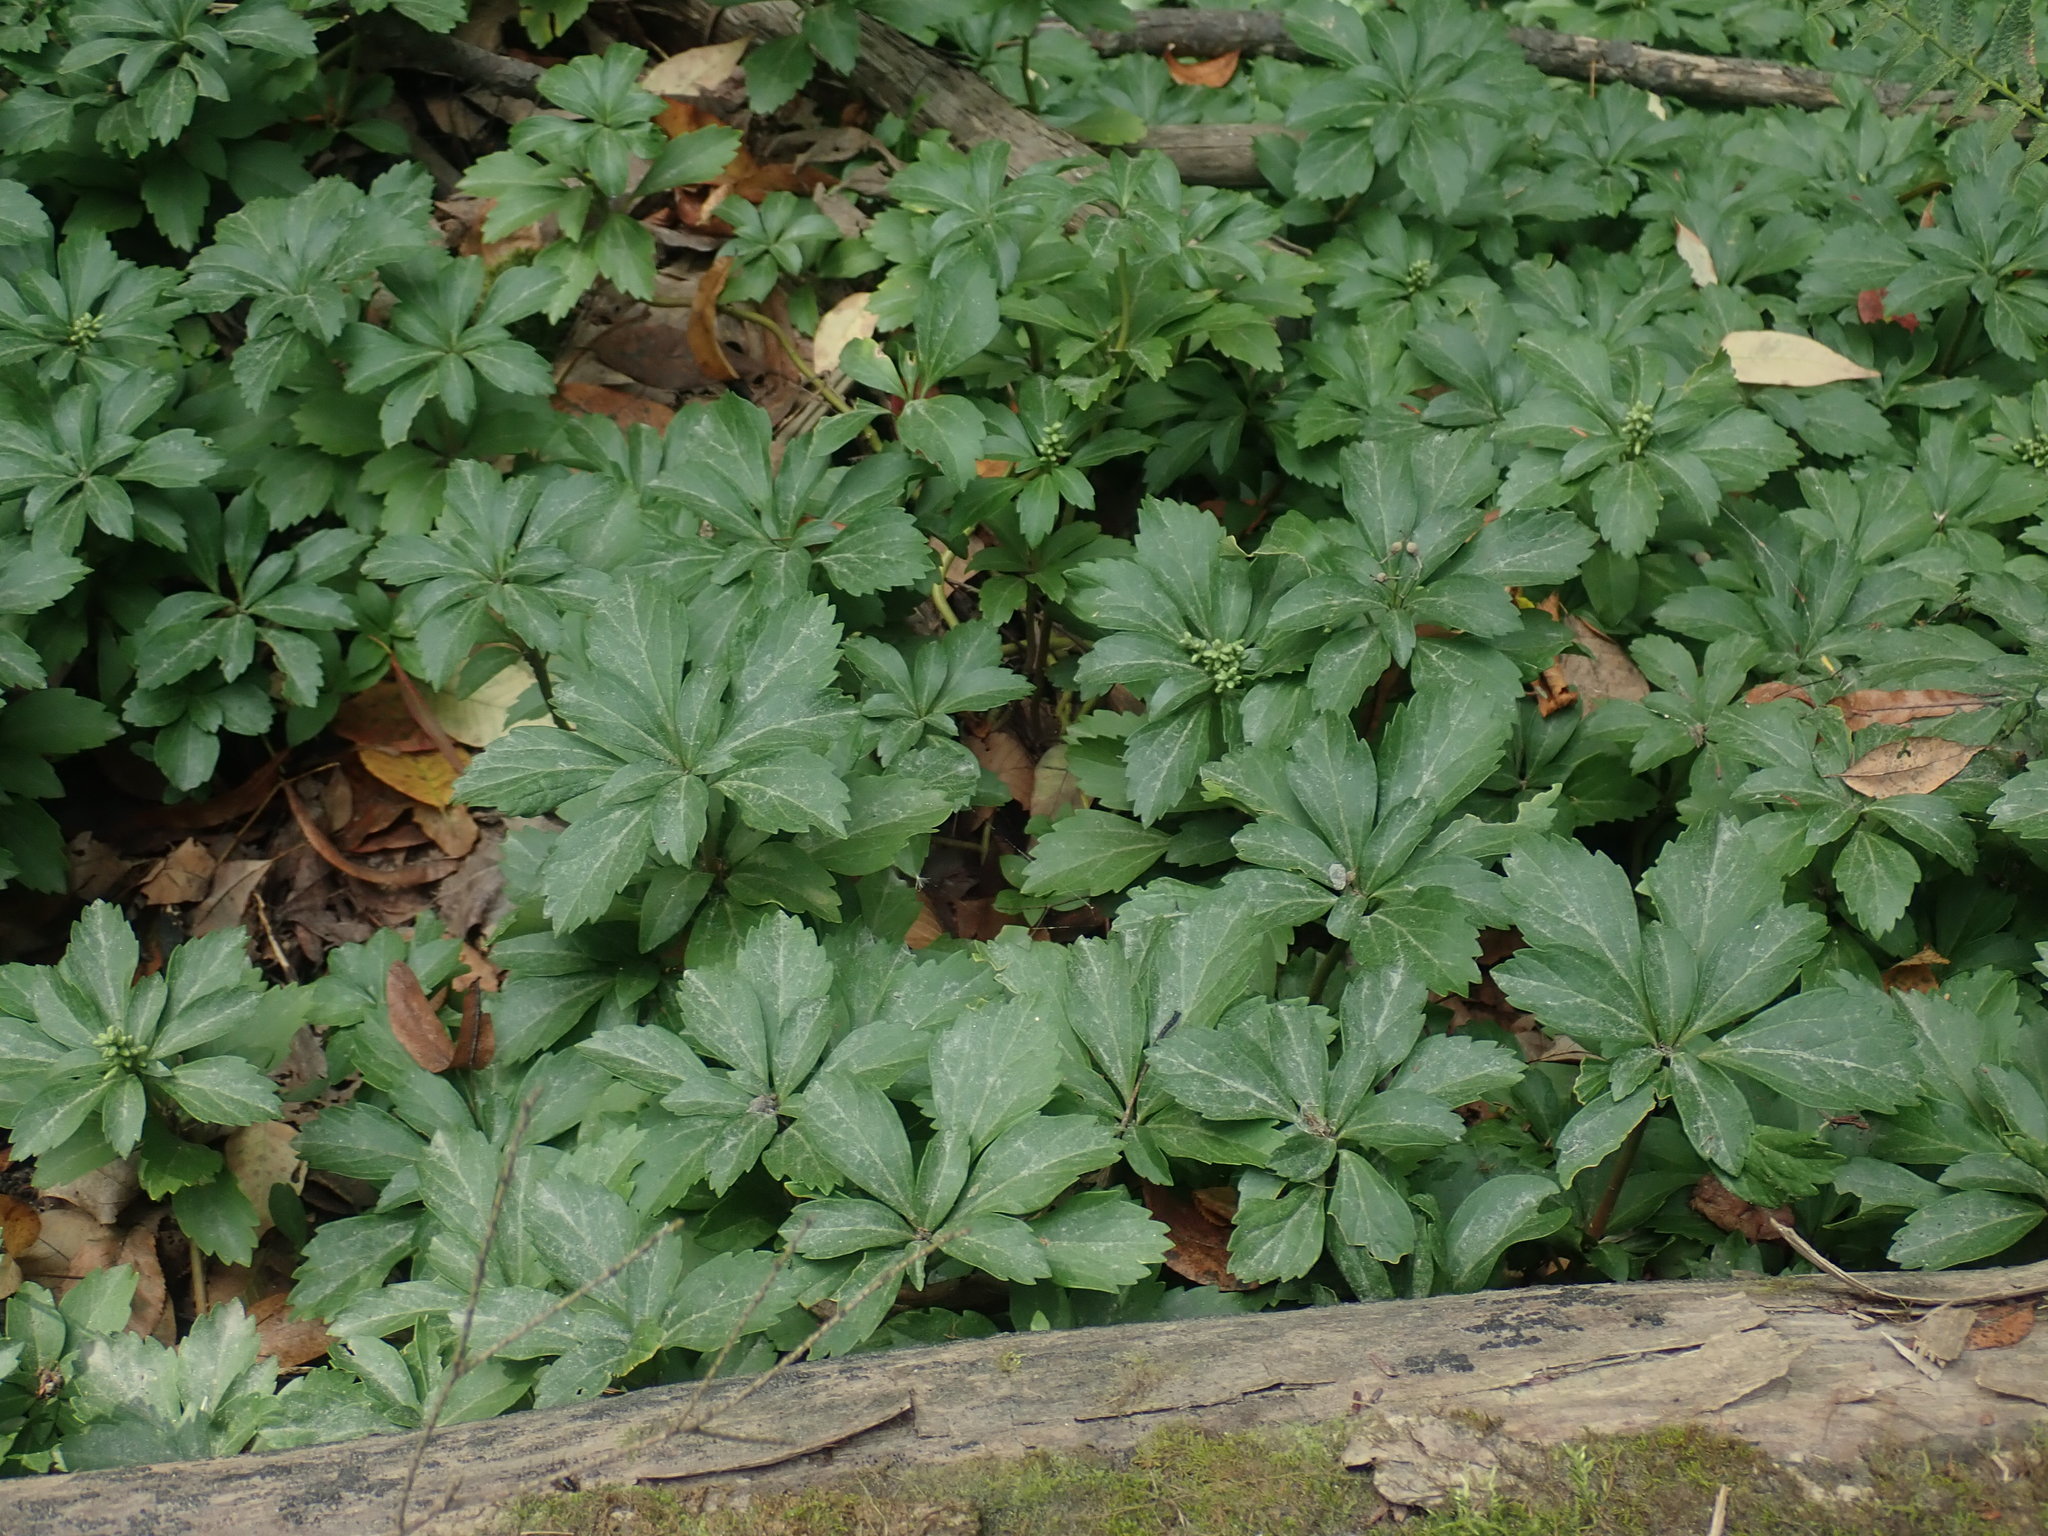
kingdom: Plantae
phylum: Tracheophyta
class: Magnoliopsida
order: Buxales
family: Buxaceae
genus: Pachysandra
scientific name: Pachysandra terminalis
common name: Japanese pachysandra
